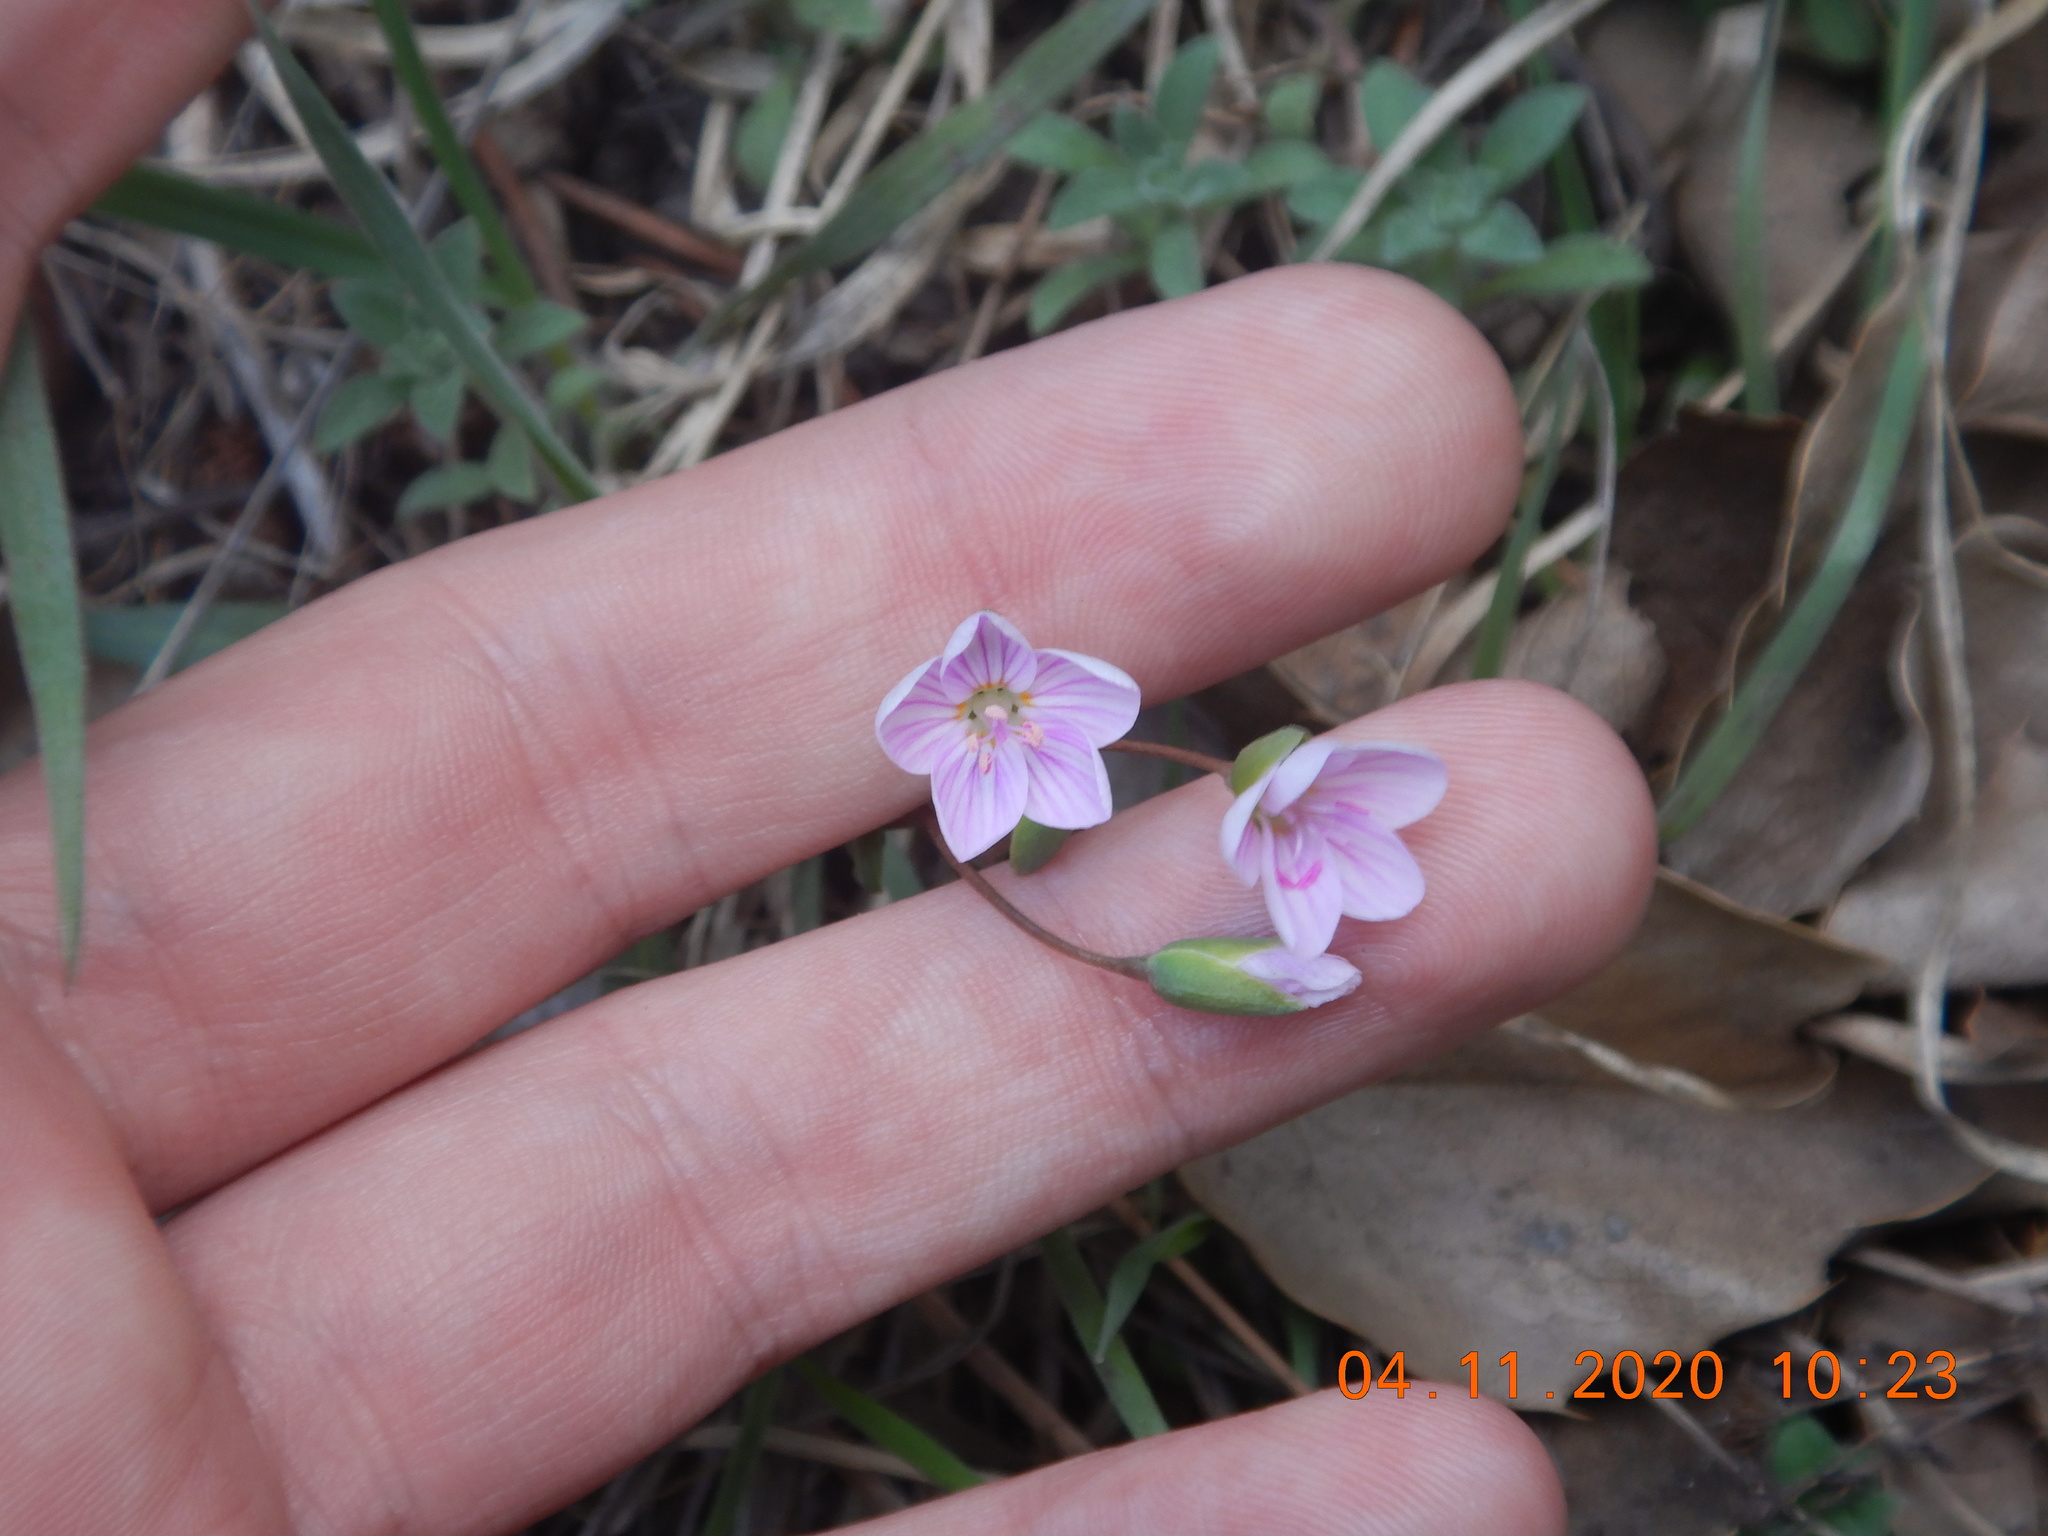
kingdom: Plantae
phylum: Tracheophyta
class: Magnoliopsida
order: Caryophyllales
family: Montiaceae
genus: Claytonia
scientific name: Claytonia rosea
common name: Rocky mountain spring-beauty
